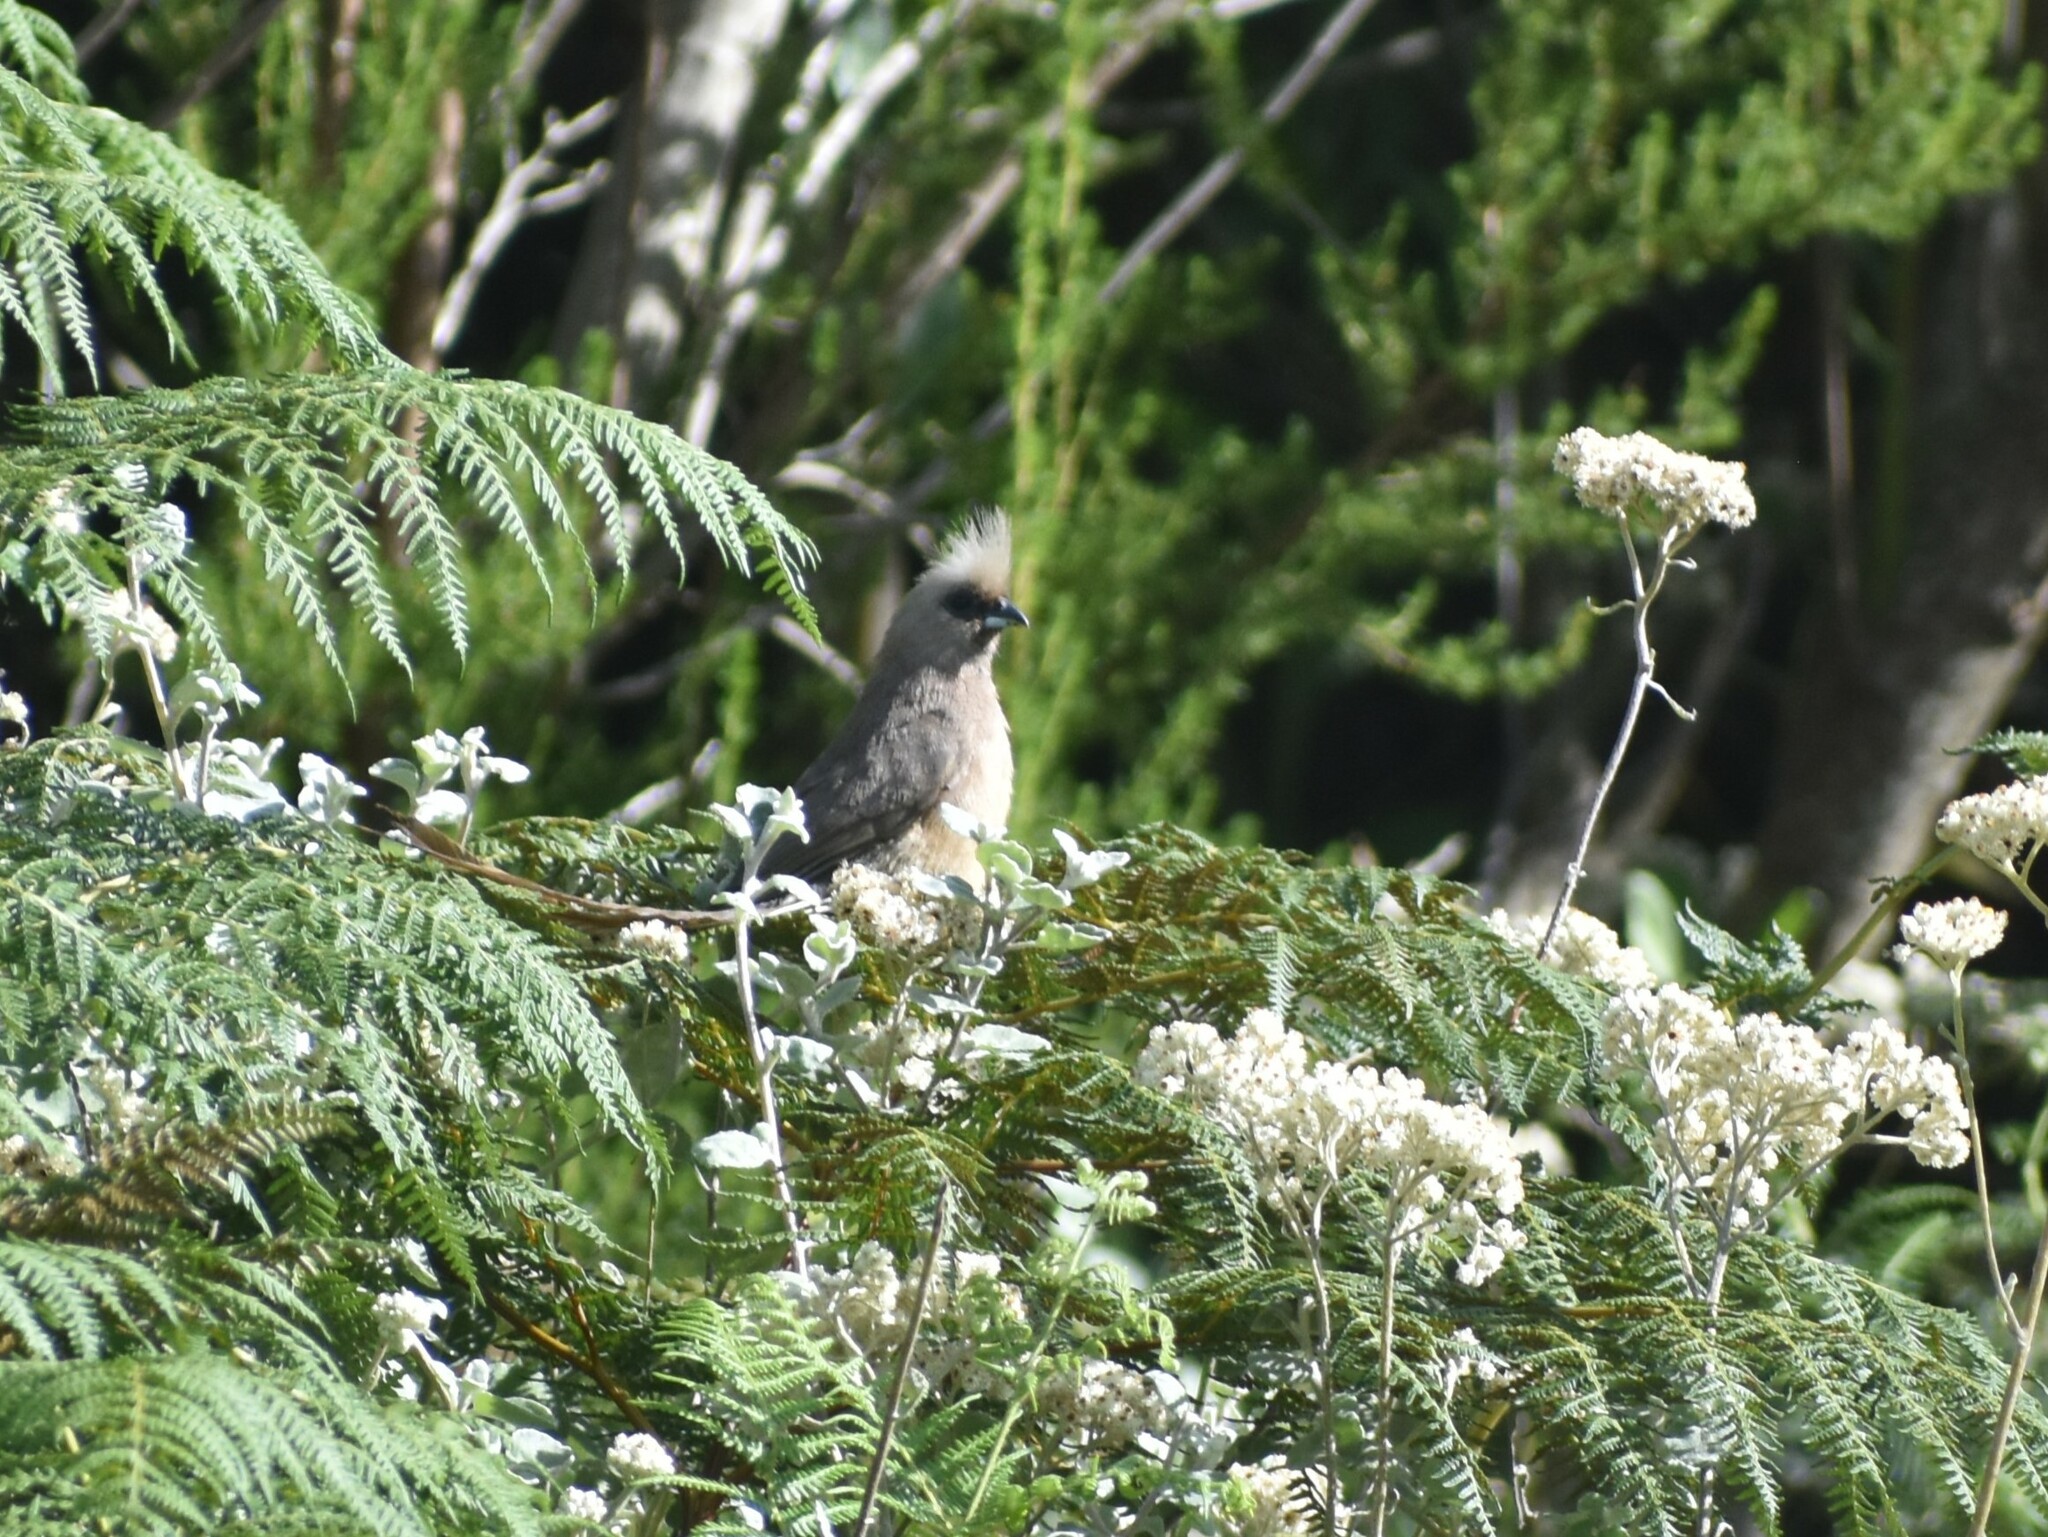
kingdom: Animalia
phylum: Chordata
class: Aves
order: Coliiformes
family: Coliidae
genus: Colius
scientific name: Colius striatus
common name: Speckled mousebird
